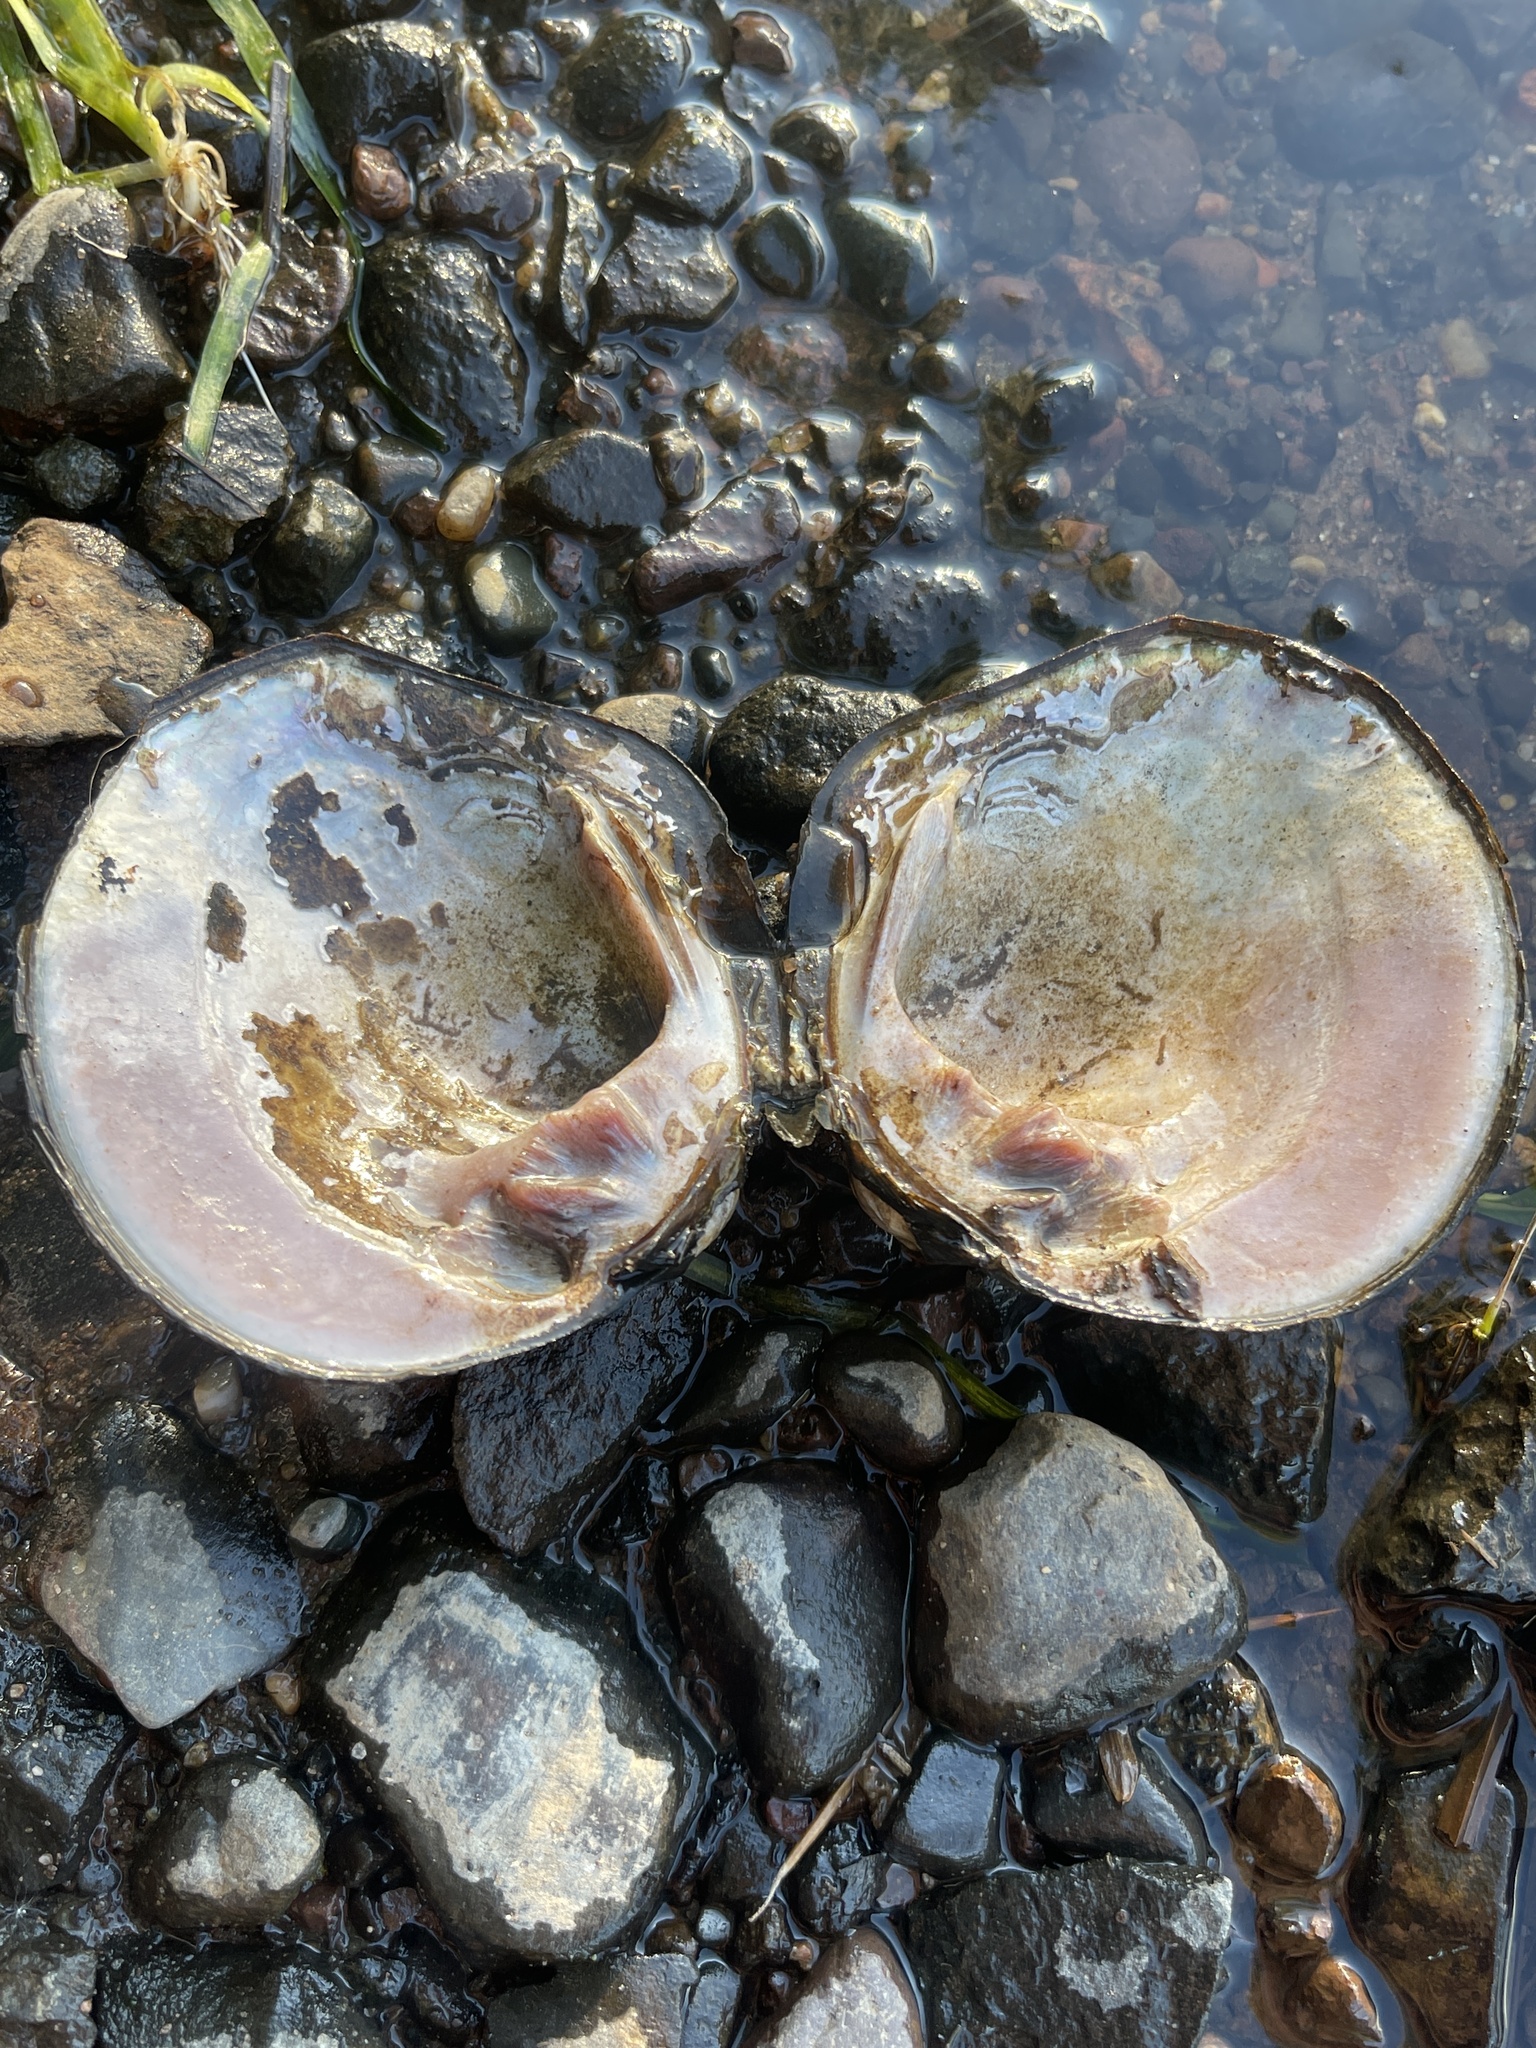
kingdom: Animalia
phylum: Mollusca
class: Bivalvia
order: Unionida
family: Unionidae
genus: Cyclonaias
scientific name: Cyclonaias tuberculata
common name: Purple wartyback
